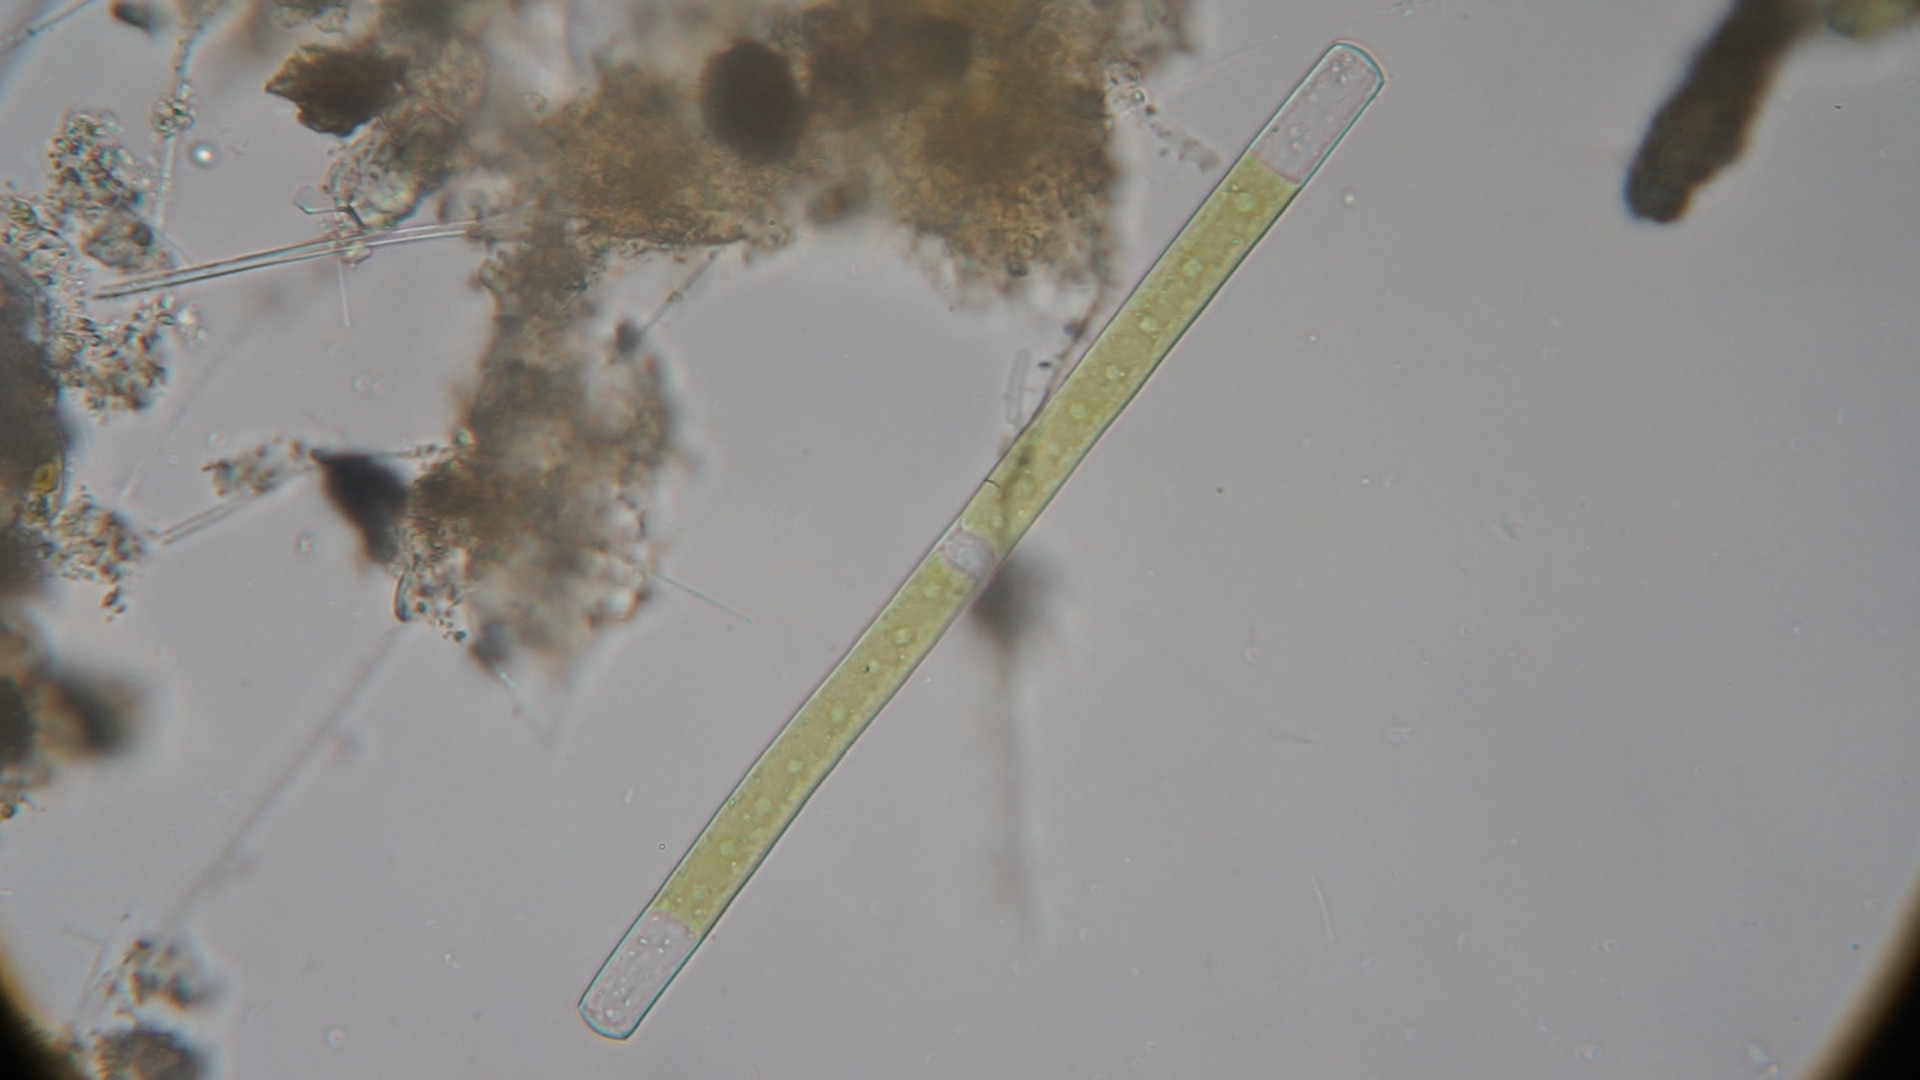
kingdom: Plantae
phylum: Charophyta
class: Conjugatophyceae
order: Desmidiales
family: Gonatozygaceae
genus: Gonatozygon
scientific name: Gonatozygon kinahanii
